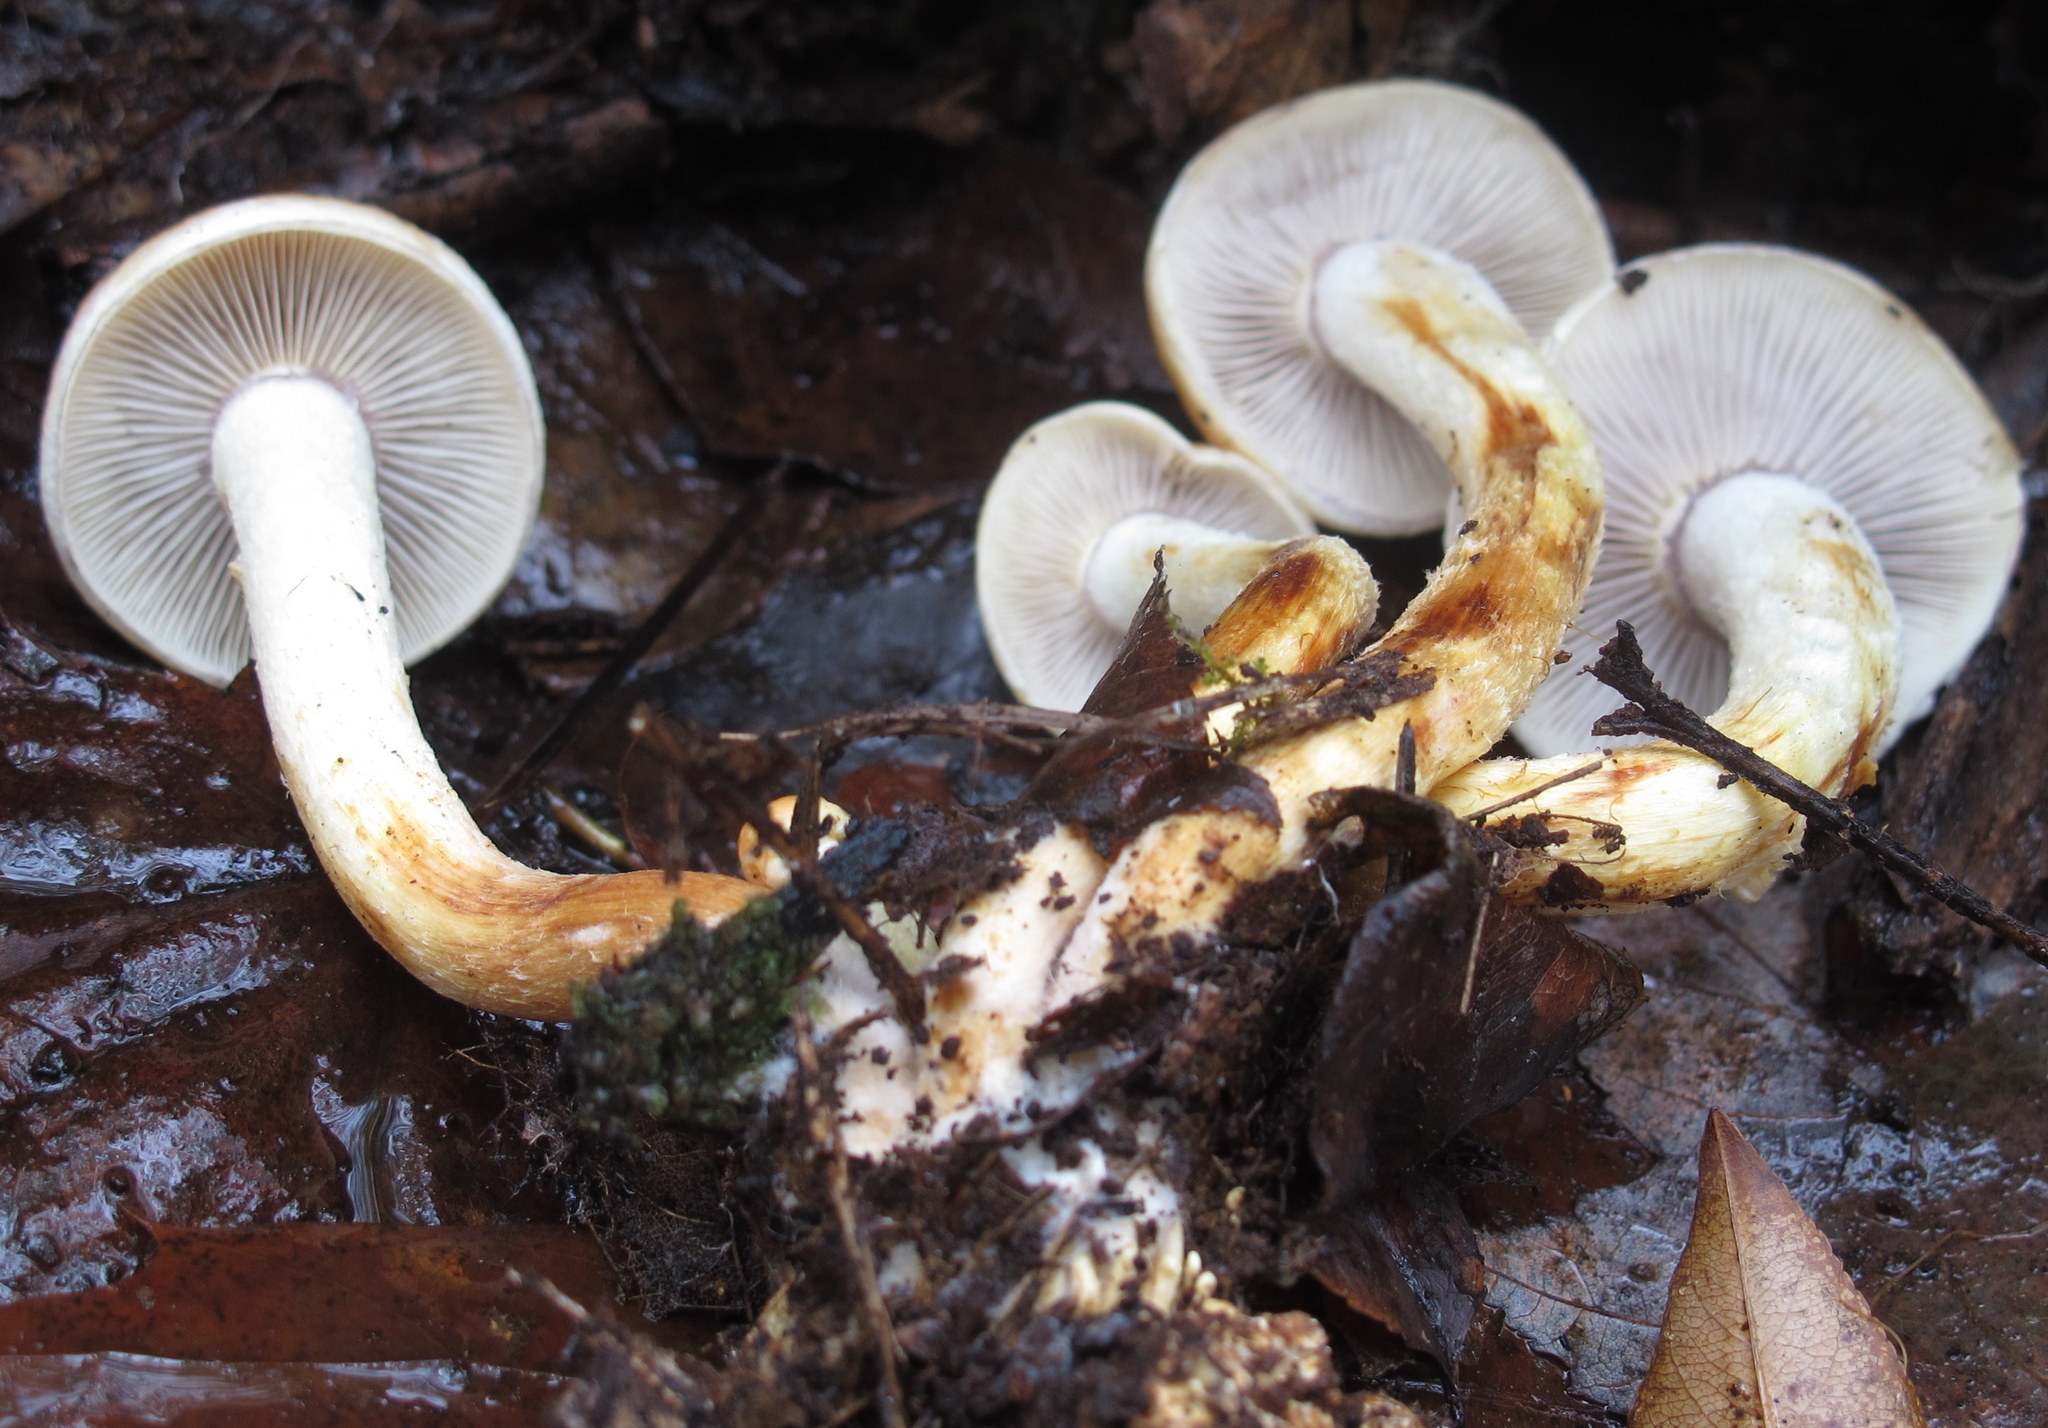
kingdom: Fungi
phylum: Basidiomycota
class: Agaricomycetes
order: Agaricales
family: Strophariaceae
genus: Hypholoma
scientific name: Hypholoma lateritium
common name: Brick caps
